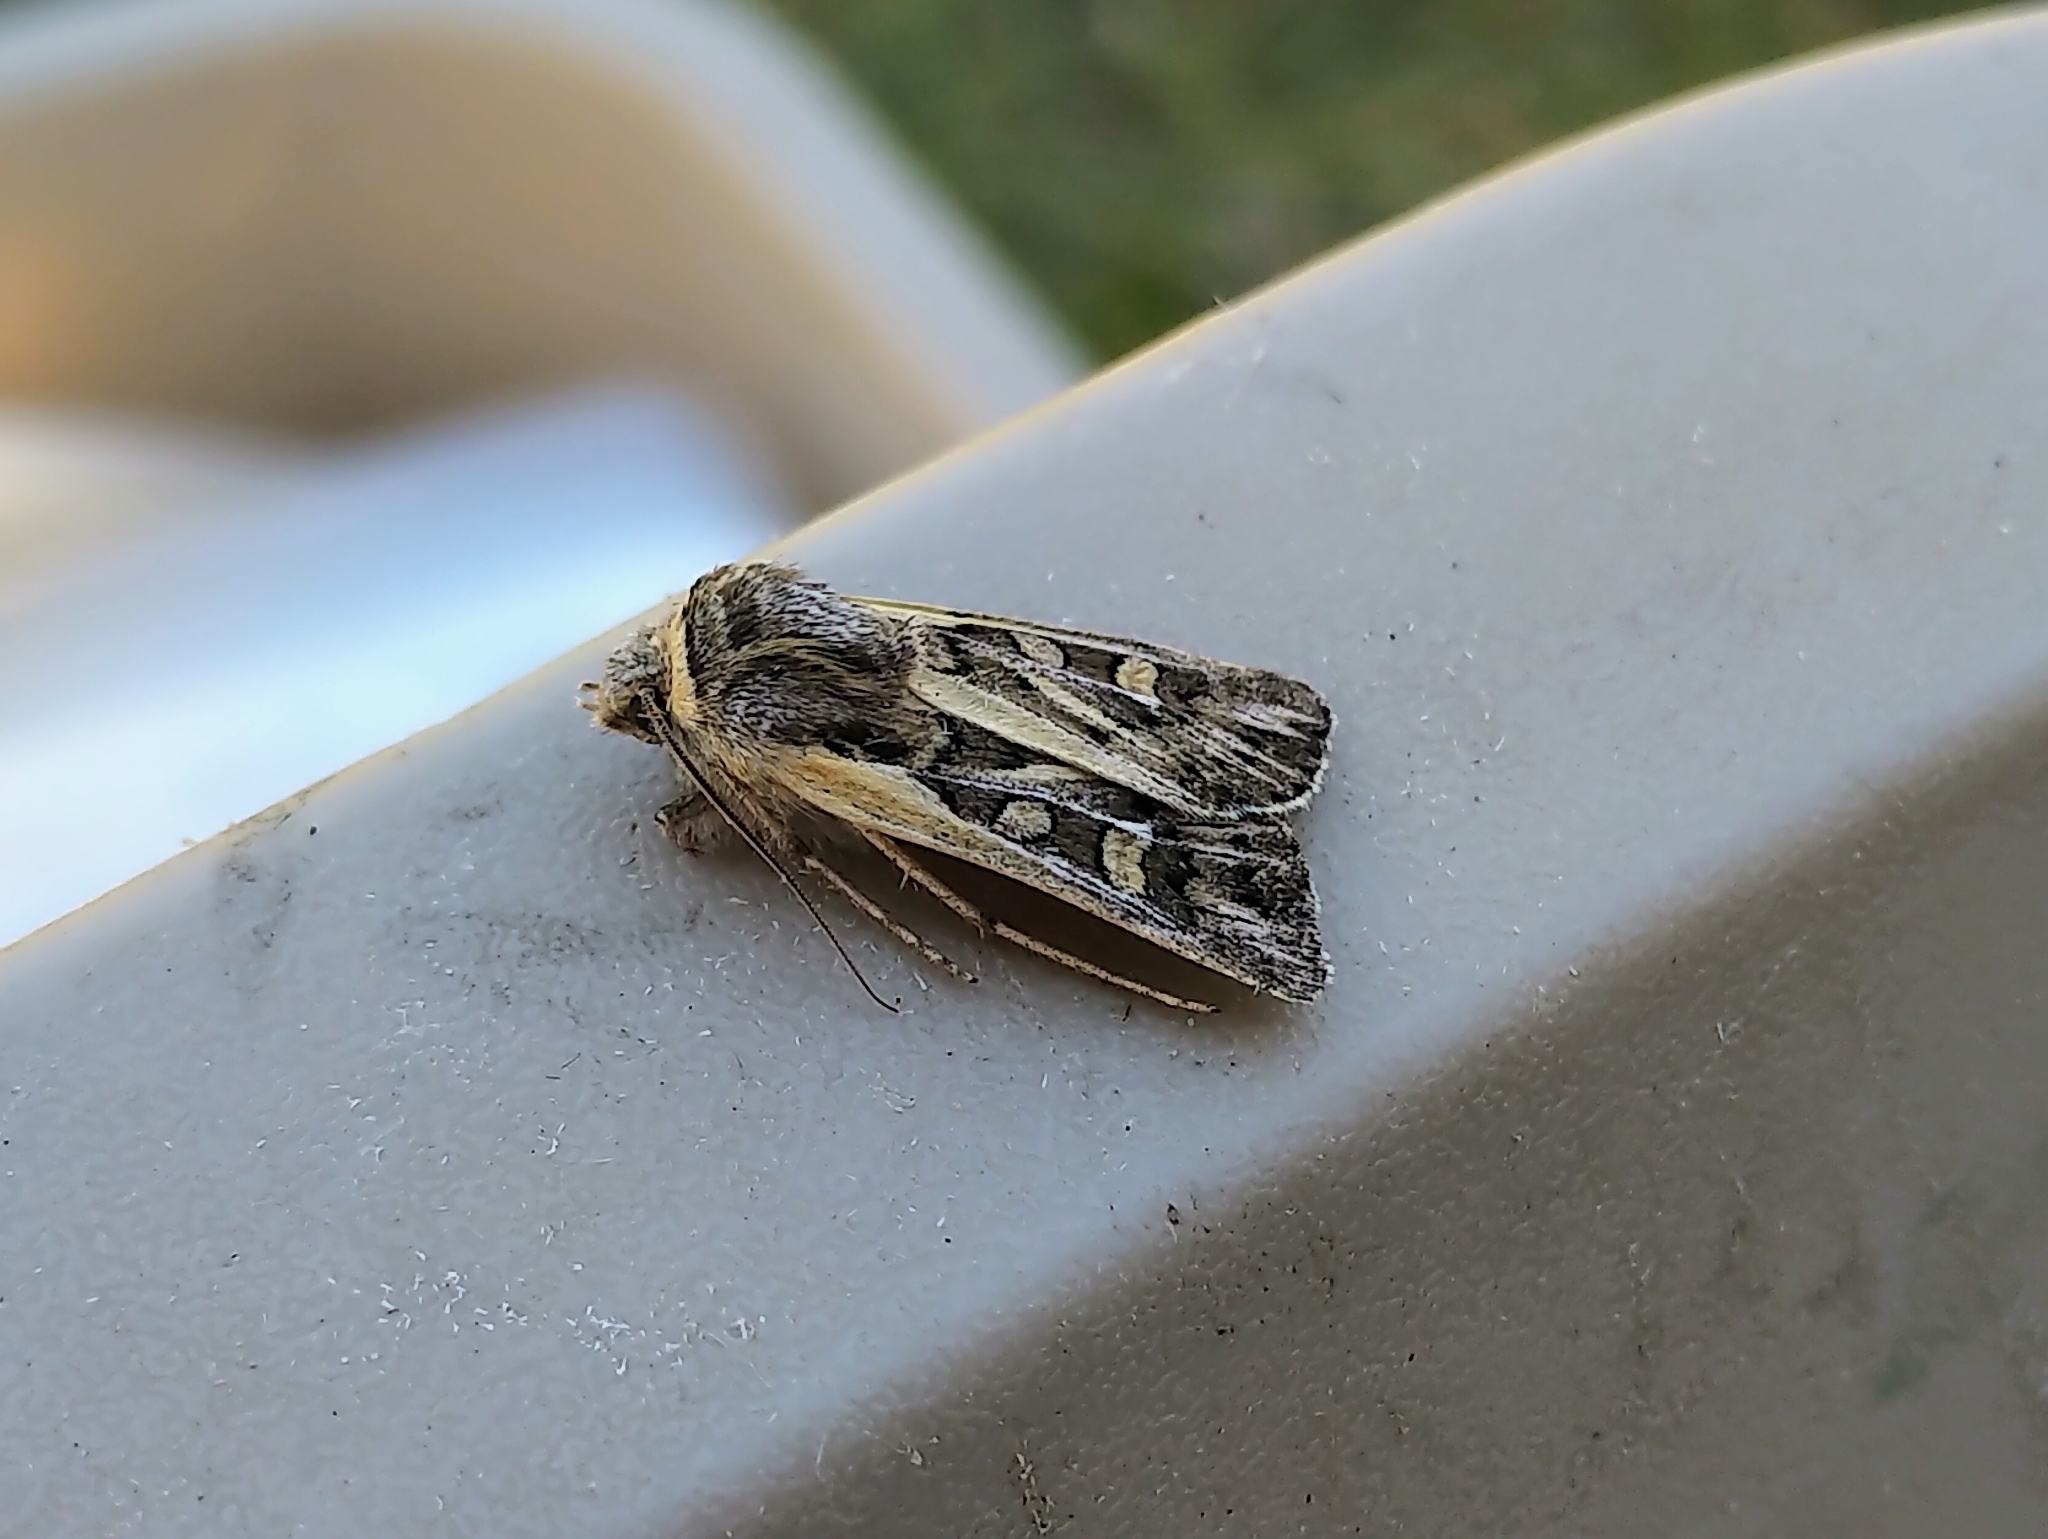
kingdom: Animalia
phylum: Arthropoda
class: Insecta
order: Lepidoptera
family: Noctuidae
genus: Euxoa
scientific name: Euxoa quadridentata
